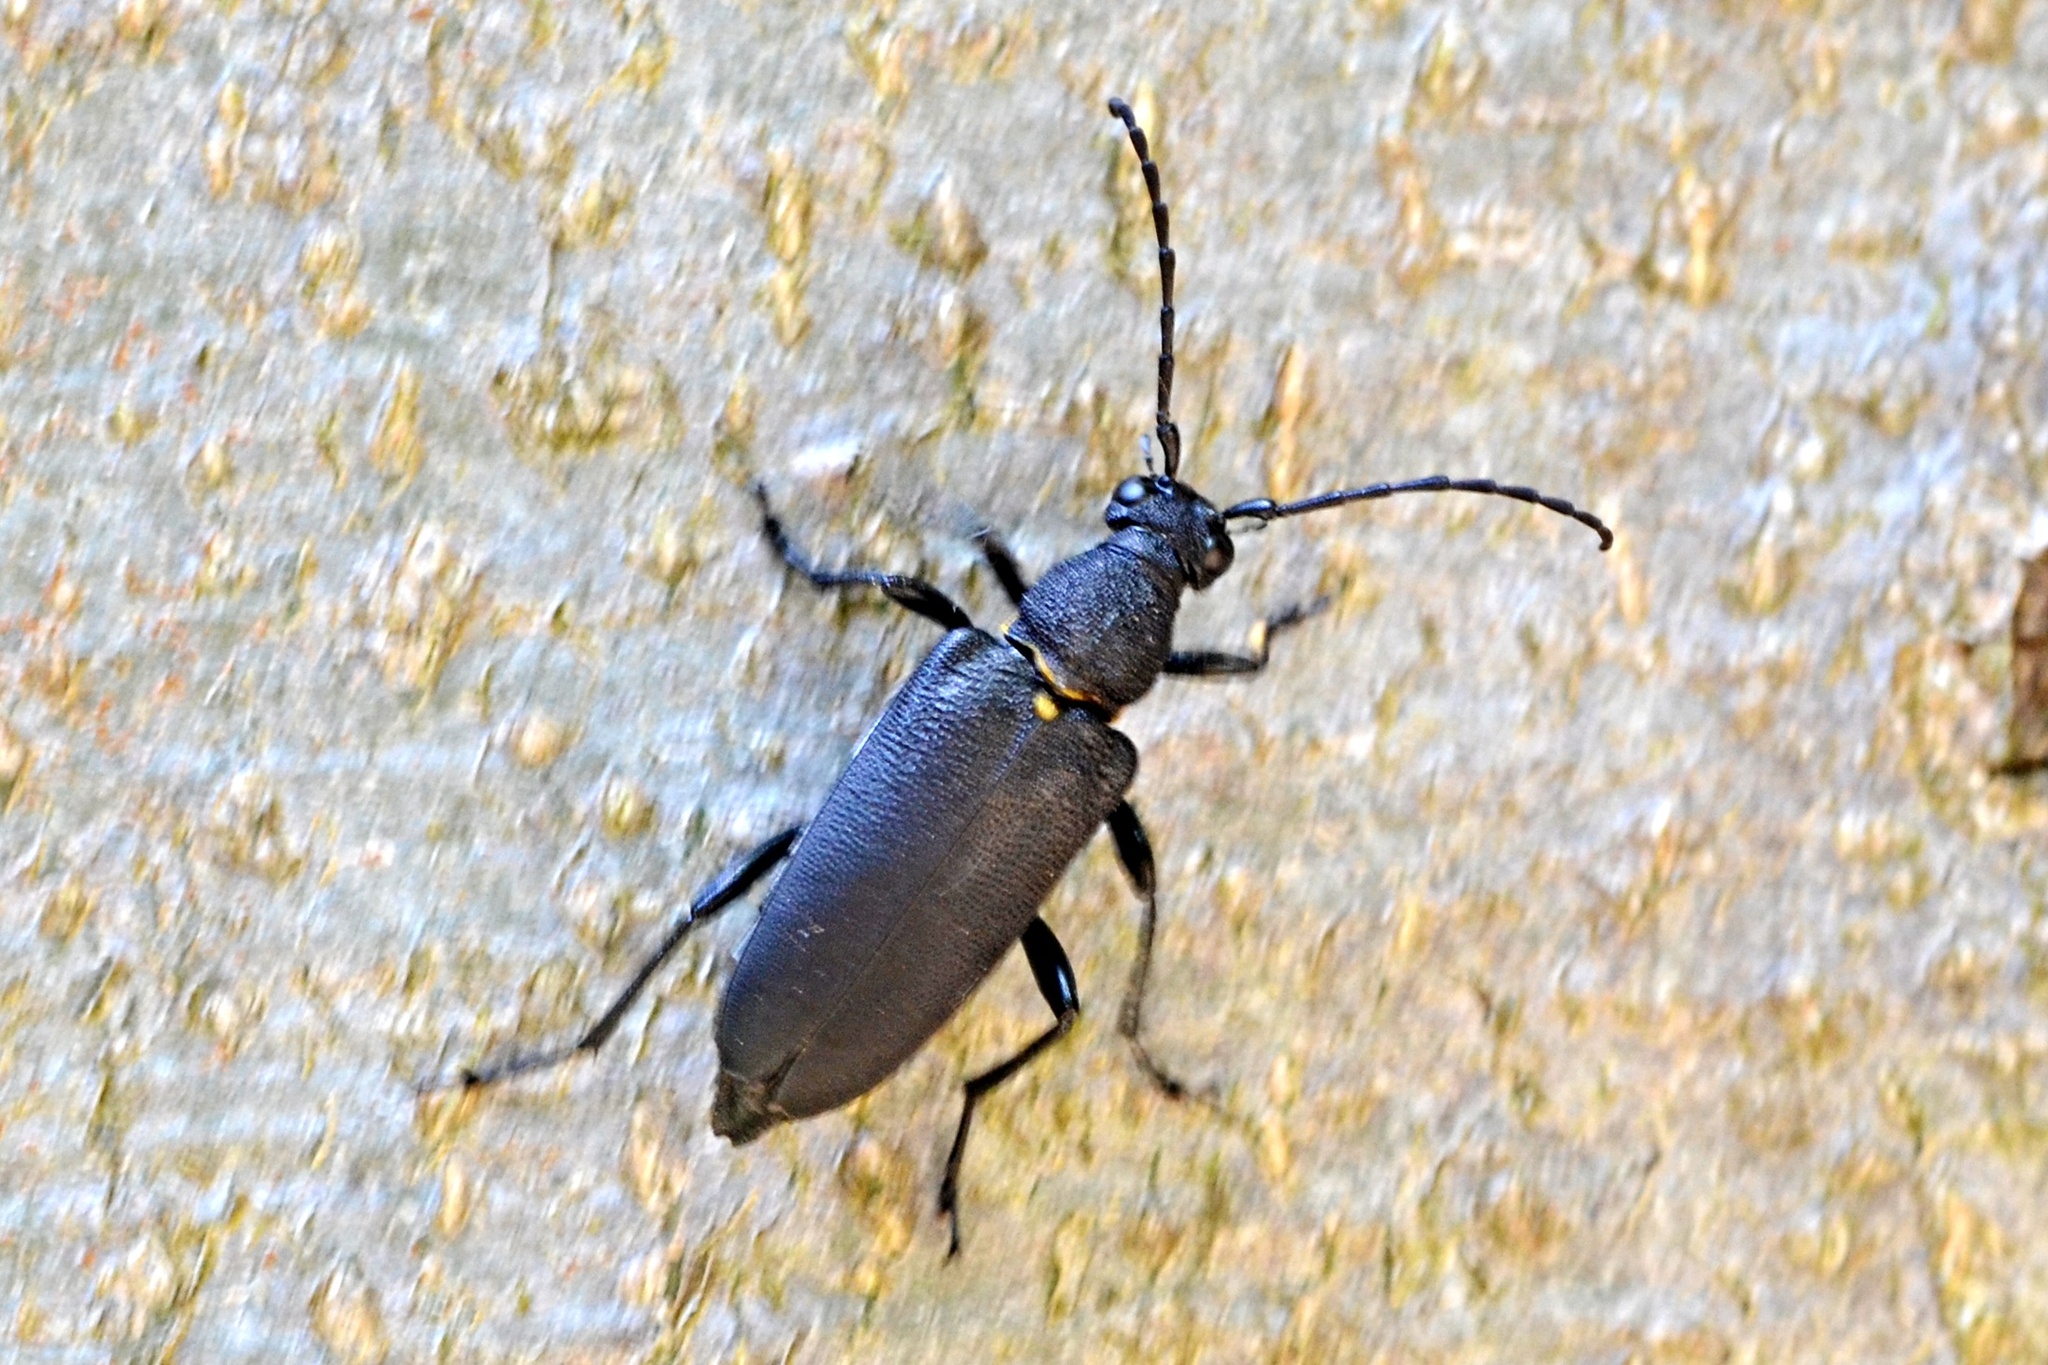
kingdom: Animalia
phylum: Arthropoda
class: Insecta
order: Coleoptera
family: Cerambycidae
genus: Stictoleptura
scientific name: Stictoleptura scutellata
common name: Large black longhorn beetle
